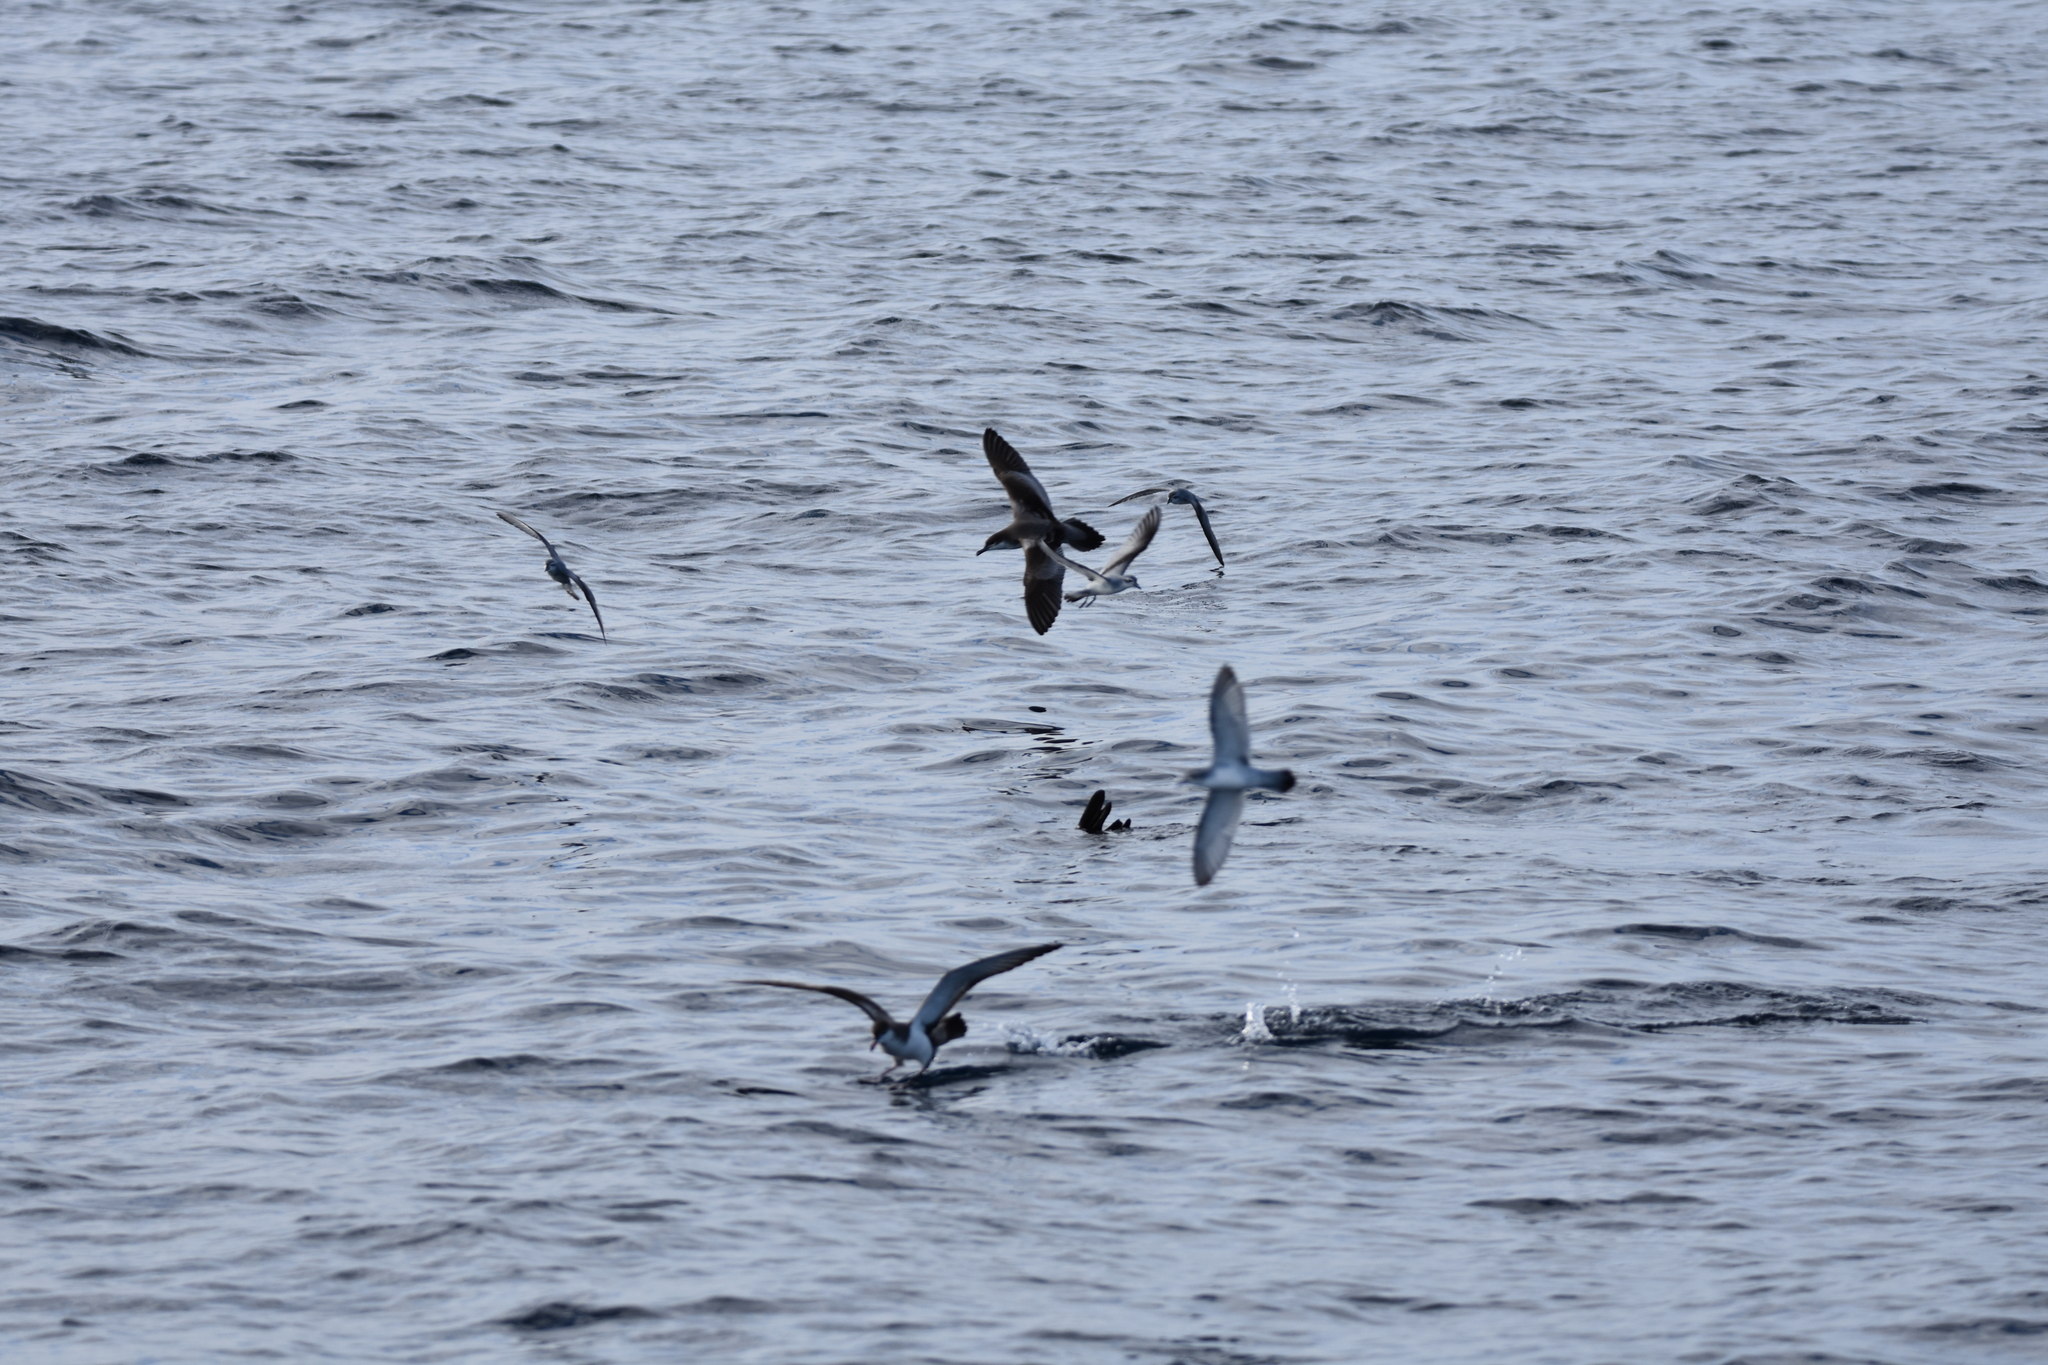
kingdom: Animalia
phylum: Chordata
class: Aves
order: Procellariiformes
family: Procellariidae
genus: Puffinus
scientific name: Puffinus bulleri
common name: Buller's shearwater
